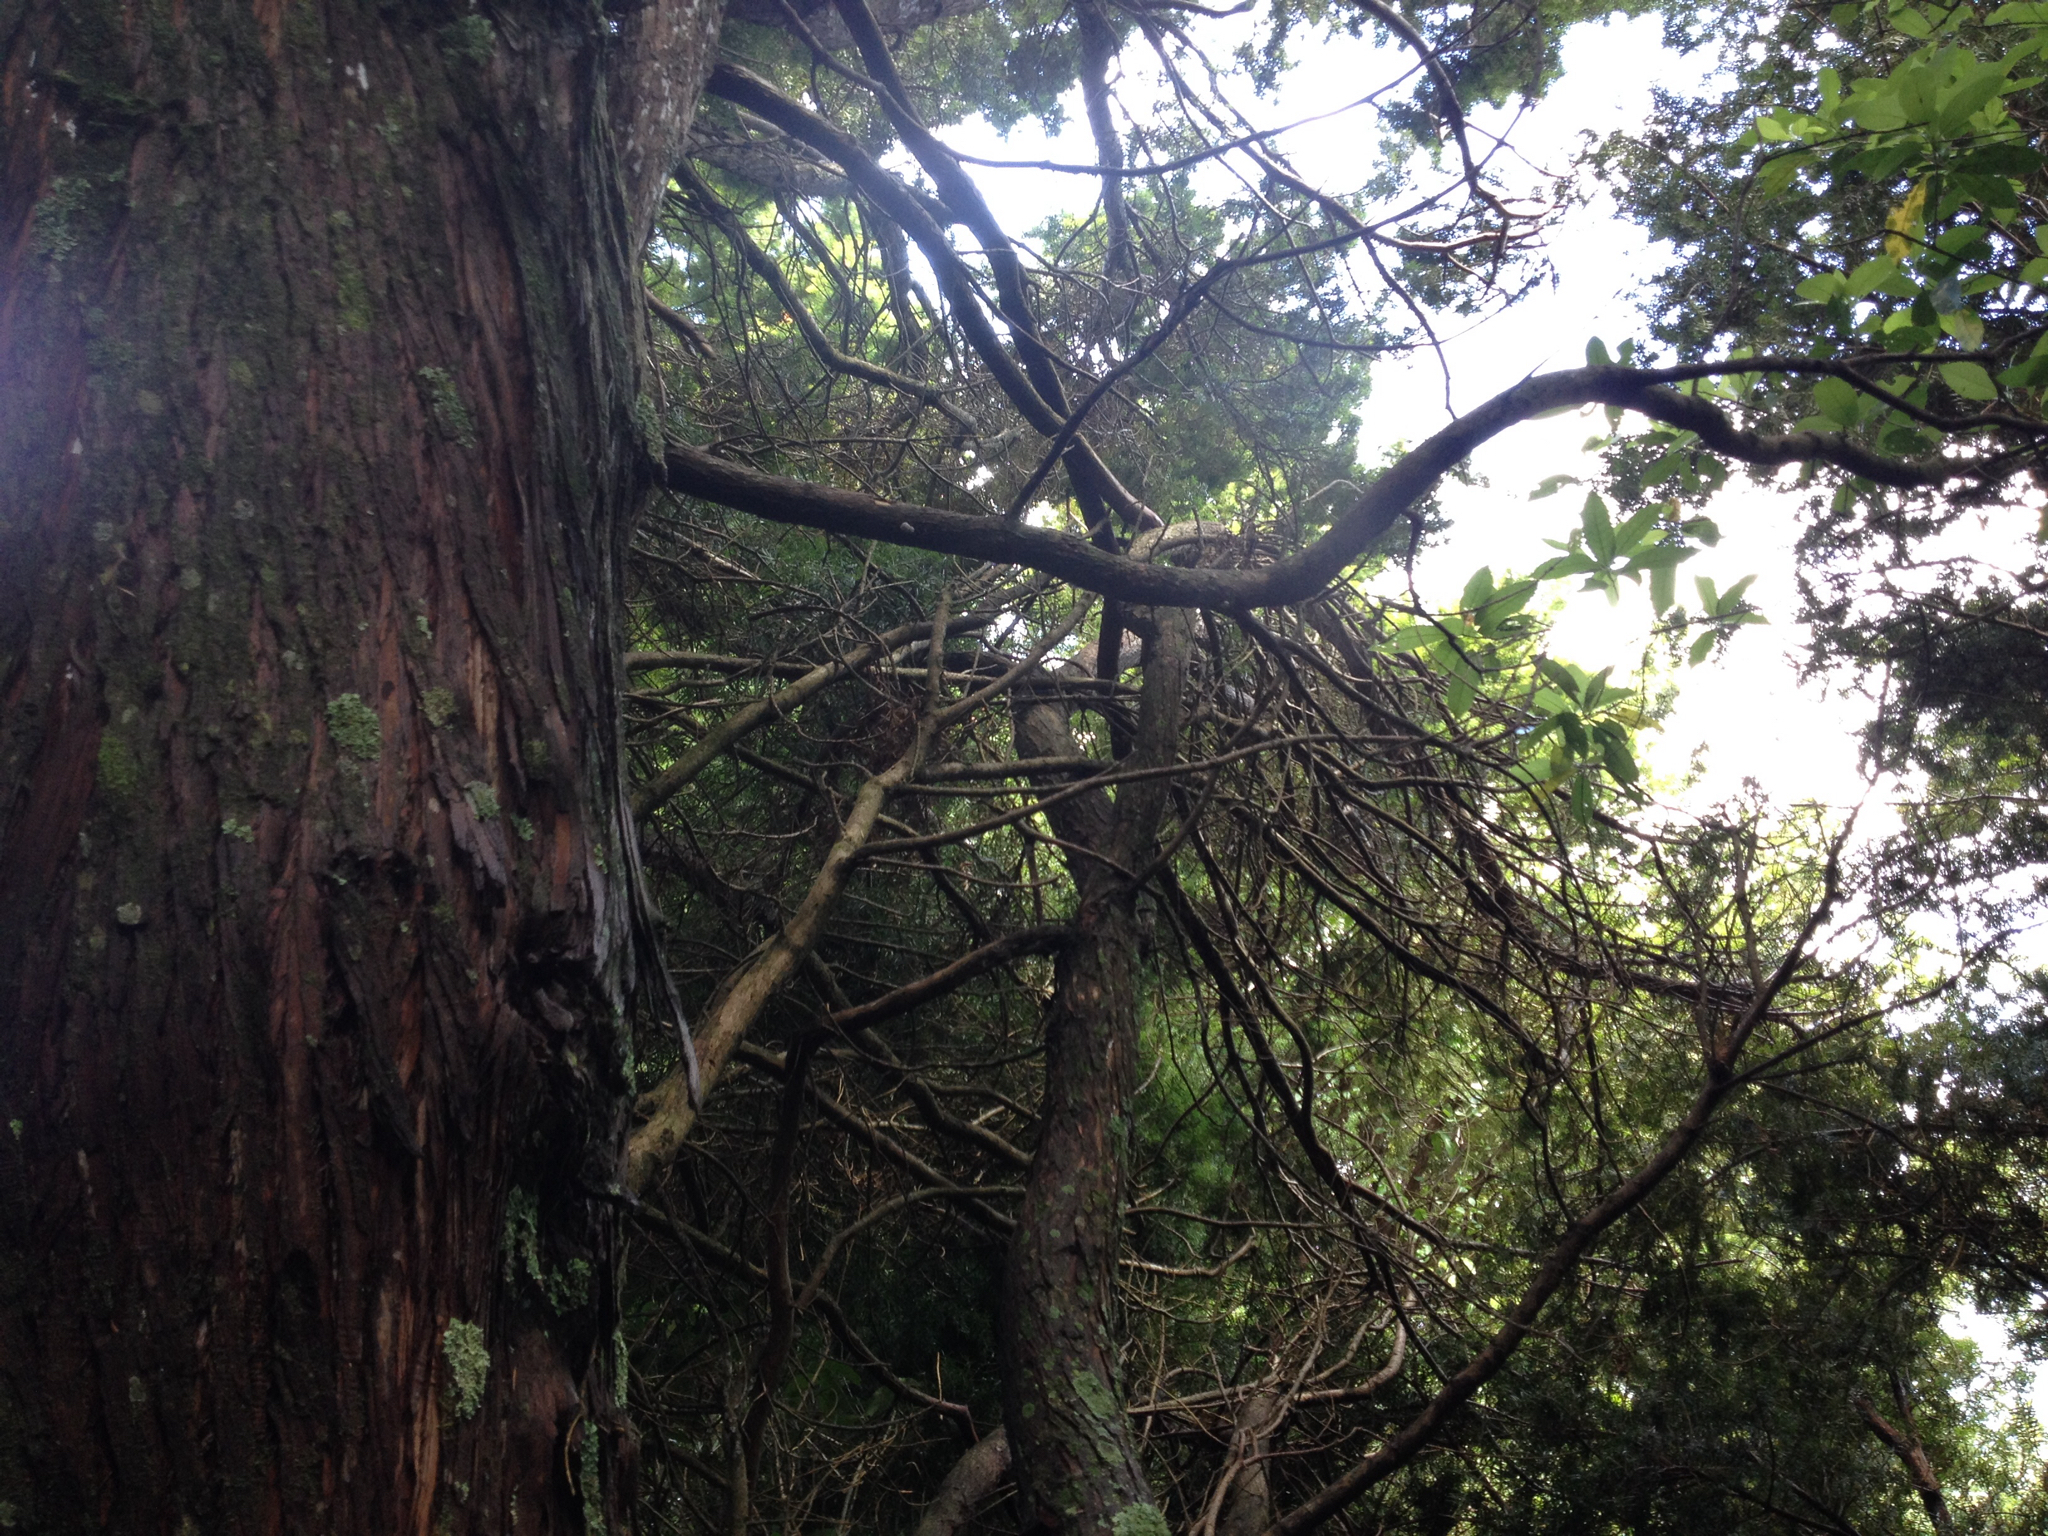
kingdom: Plantae
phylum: Tracheophyta
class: Pinopsida
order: Pinales
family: Podocarpaceae
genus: Podocarpus
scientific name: Podocarpus totara
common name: Totara
